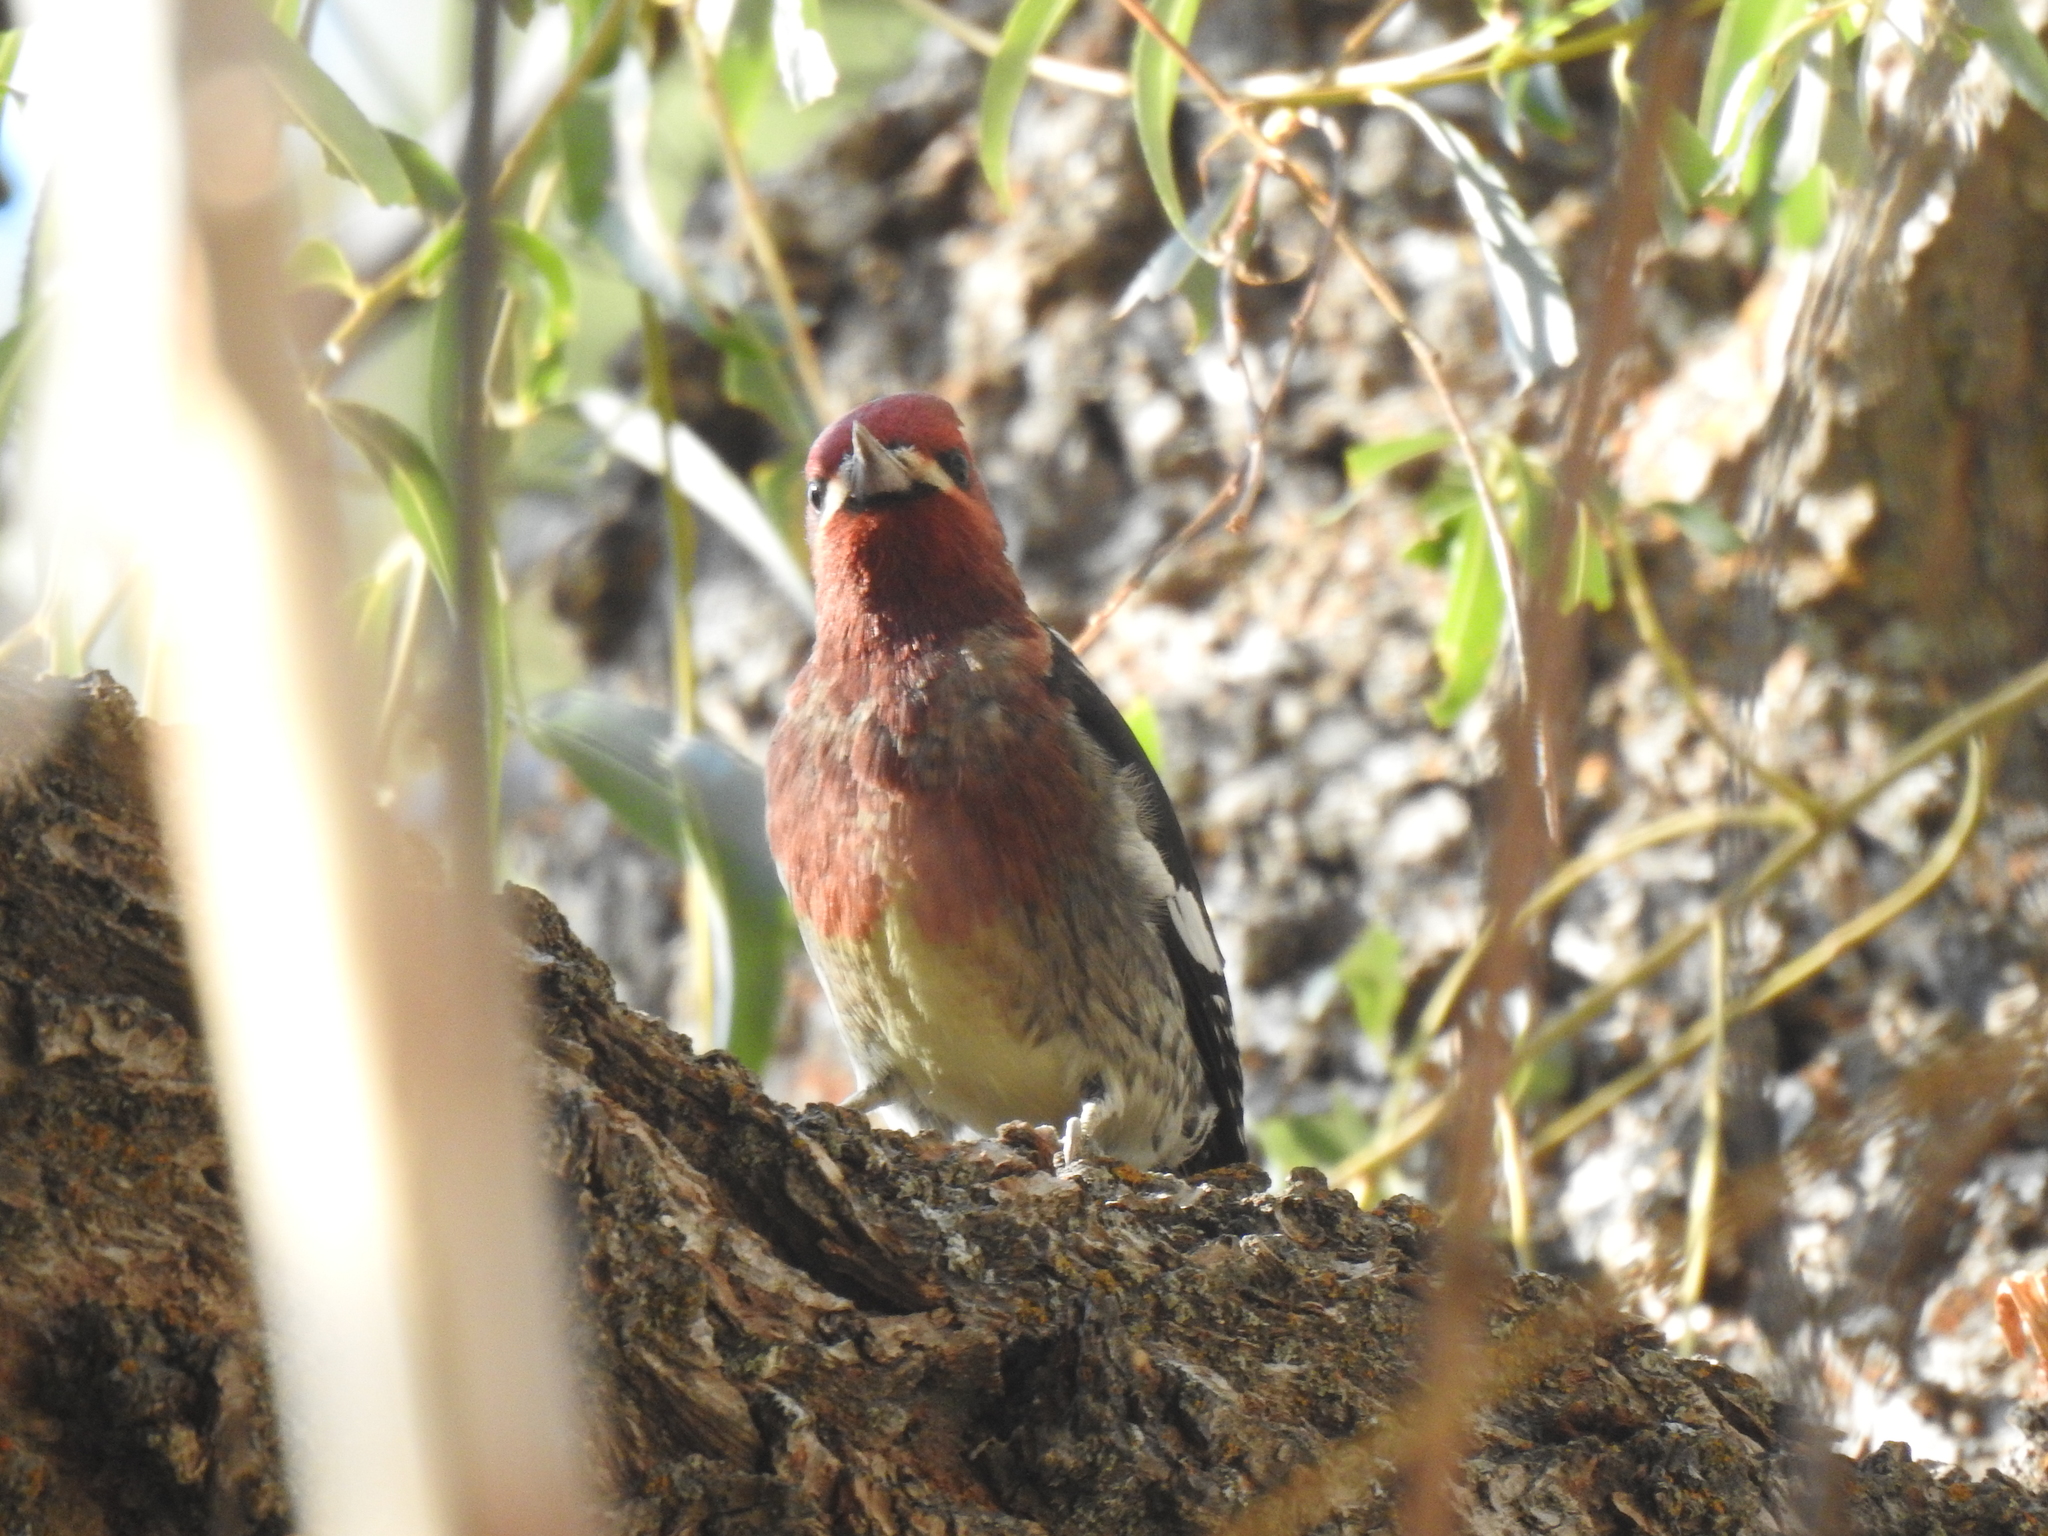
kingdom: Animalia
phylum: Chordata
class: Aves
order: Piciformes
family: Picidae
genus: Sphyrapicus
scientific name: Sphyrapicus ruber
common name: Red-breasted sapsucker
